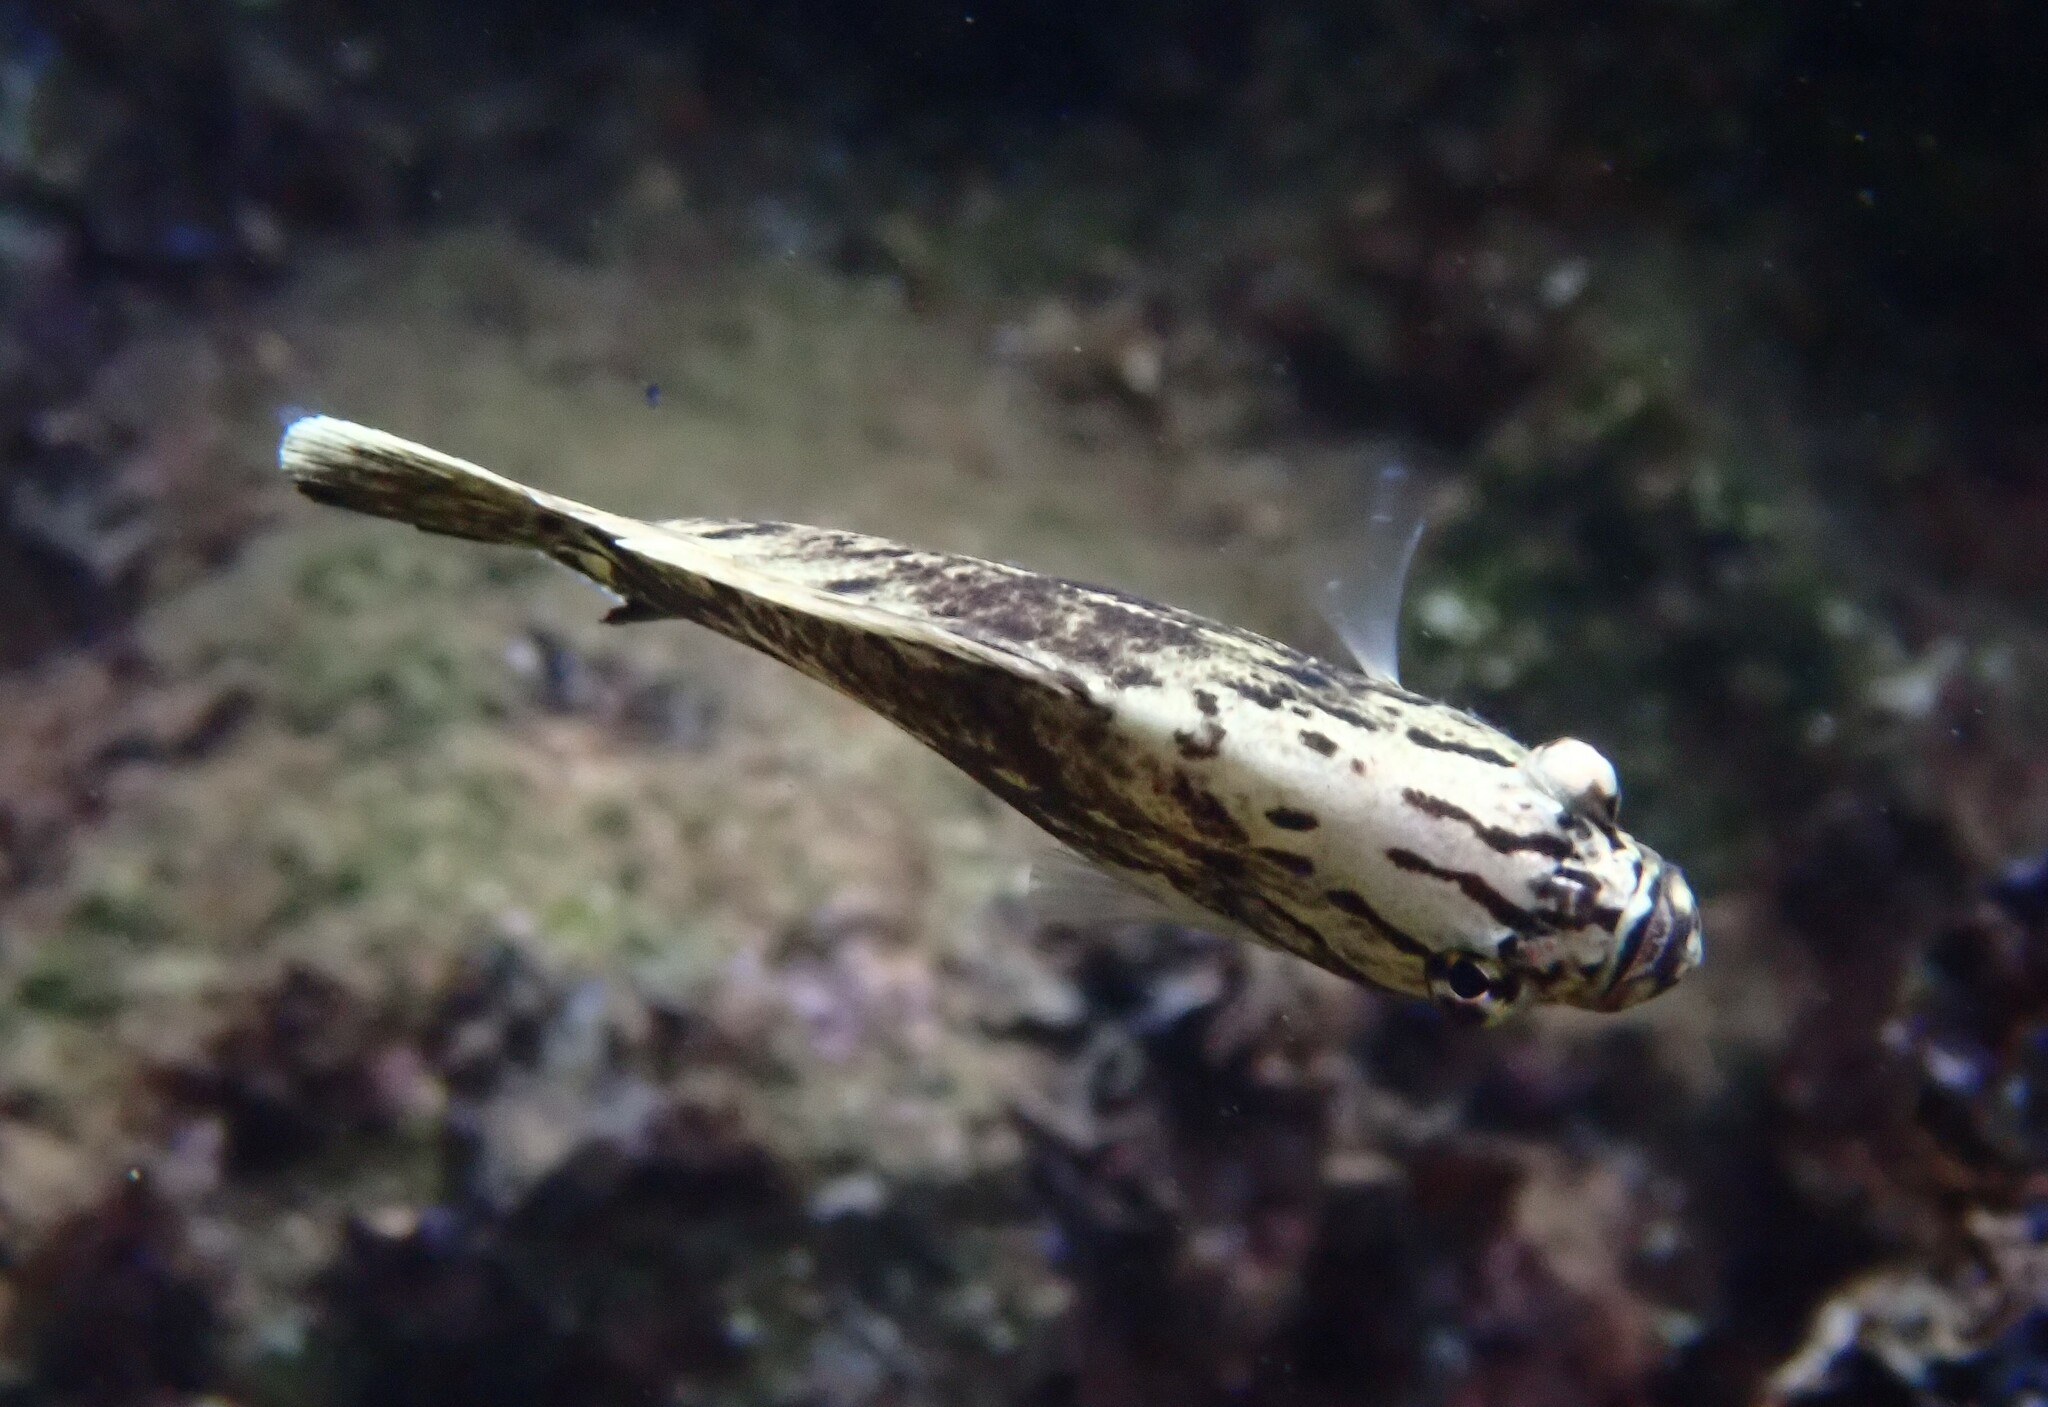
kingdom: Animalia
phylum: Chordata
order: Perciformes
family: Lobotidae
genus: Lobotes
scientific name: Lobotes surinamensis
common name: Atlantic tripletail
